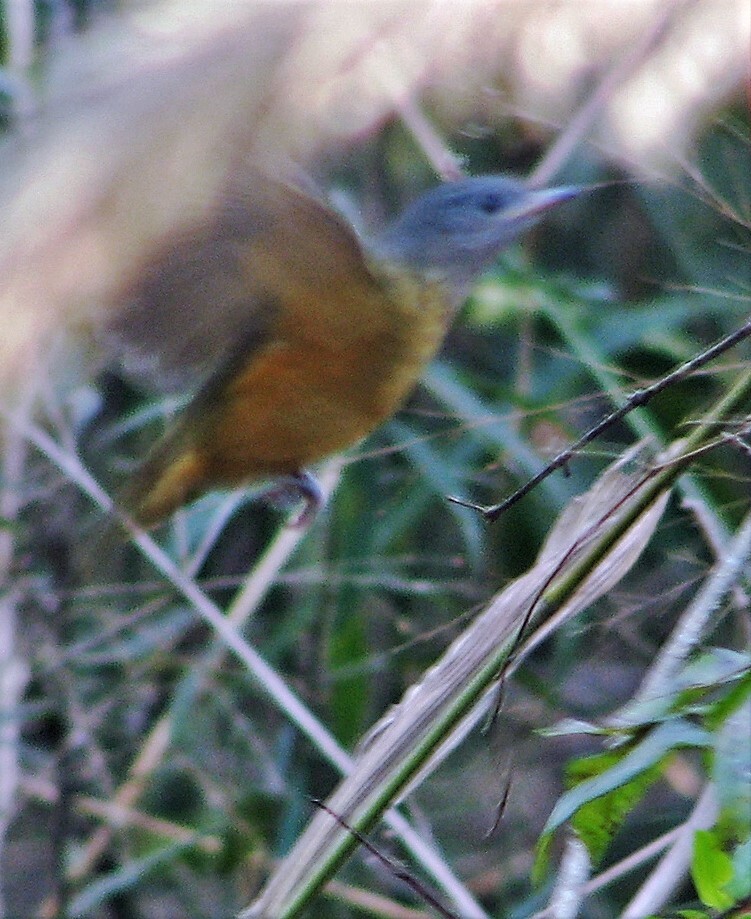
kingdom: Animalia
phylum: Chordata
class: Aves
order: Passeriformes
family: Tyrannidae
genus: Mionectes
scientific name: Mionectes rufiventris
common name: Grey-hooded flycatcher
